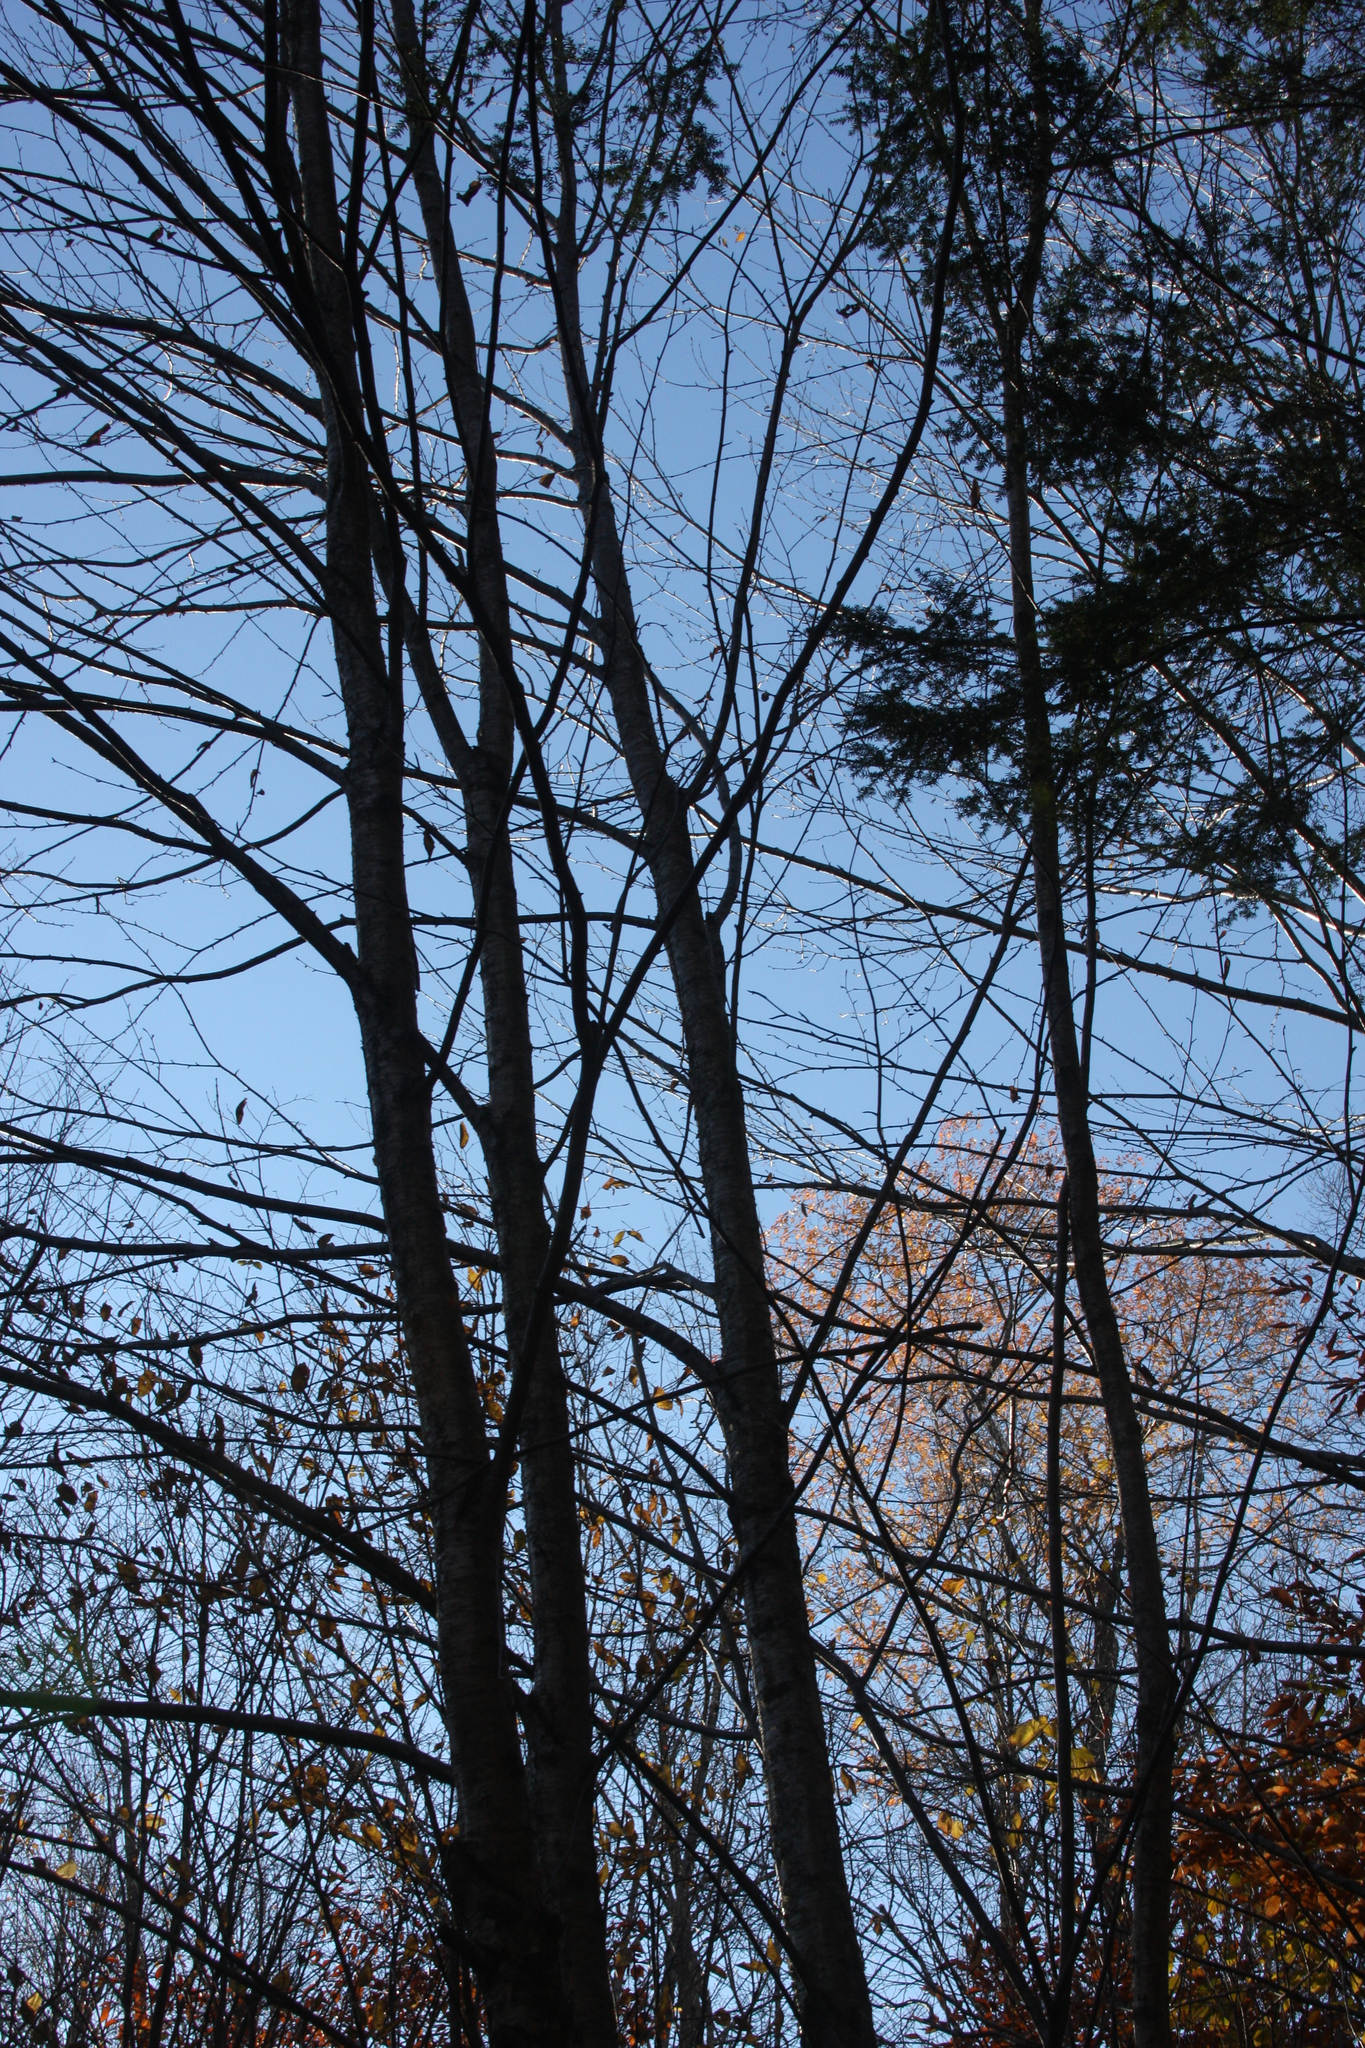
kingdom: Plantae
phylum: Tracheophyta
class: Magnoliopsida
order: Fagales
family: Betulaceae
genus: Betula
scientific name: Betula alleghaniensis
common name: Yellow birch
